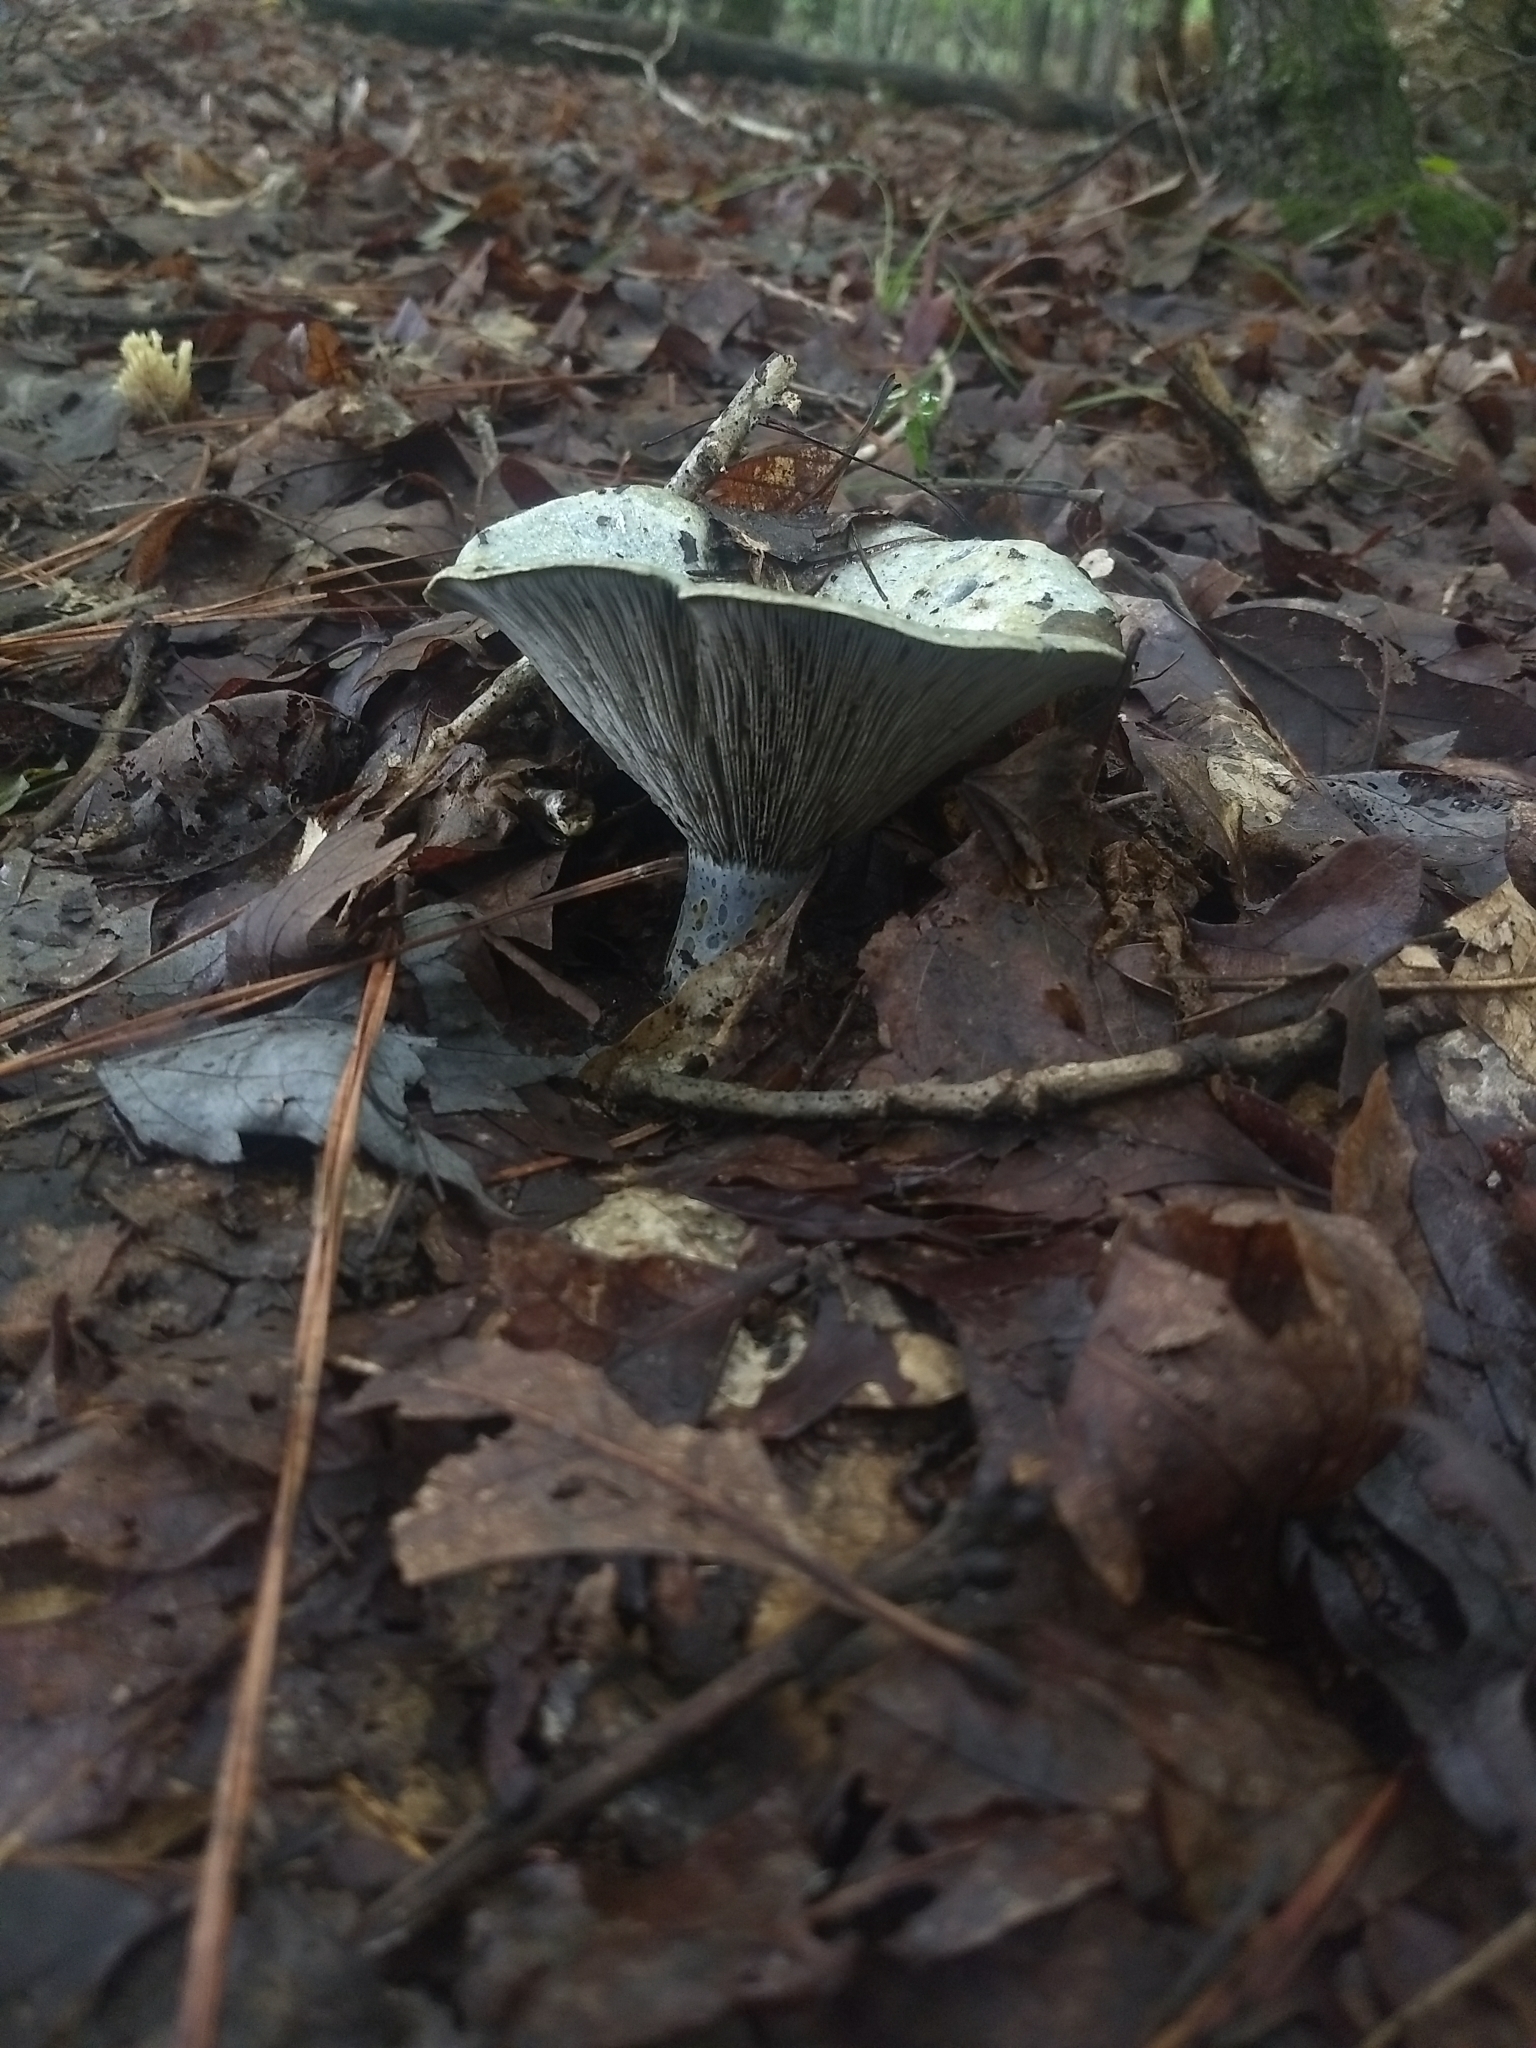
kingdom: Fungi
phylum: Basidiomycota
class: Agaricomycetes
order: Russulales
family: Russulaceae
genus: Lactarius
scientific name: Lactarius indigo
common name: Indigo milk cap
